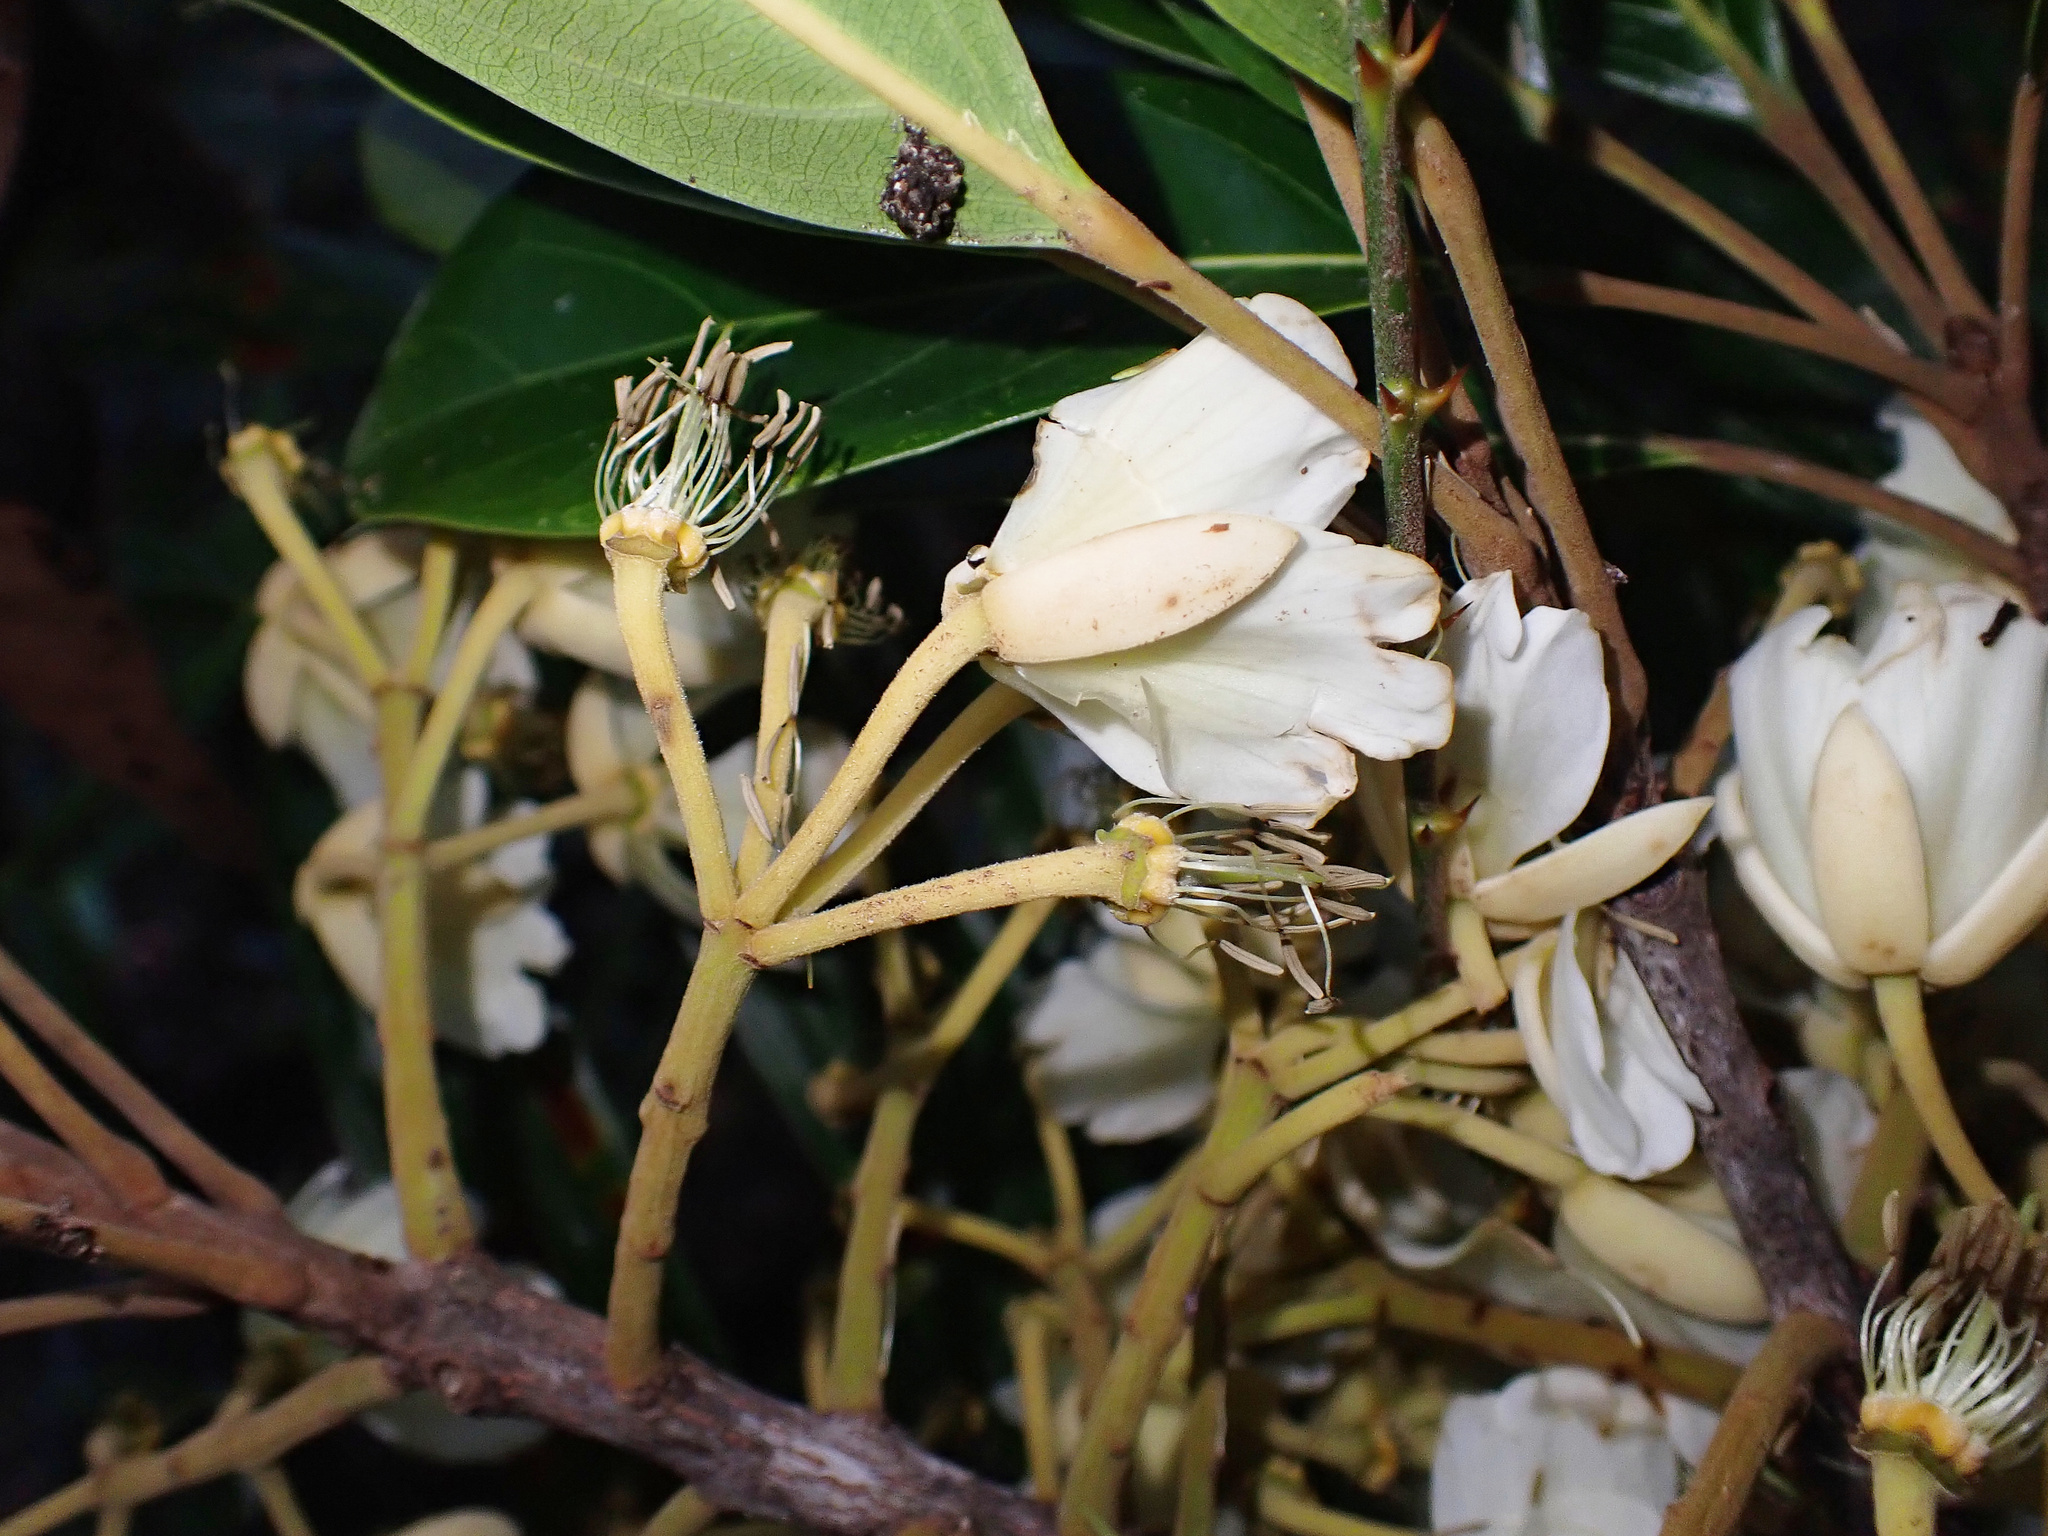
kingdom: Plantae
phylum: Tracheophyta
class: Magnoliopsida
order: Oxalidales
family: Elaeocarpaceae
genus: Elaeocarpus
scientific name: Elaeocarpus bancroftii
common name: Johnstone river-almond
